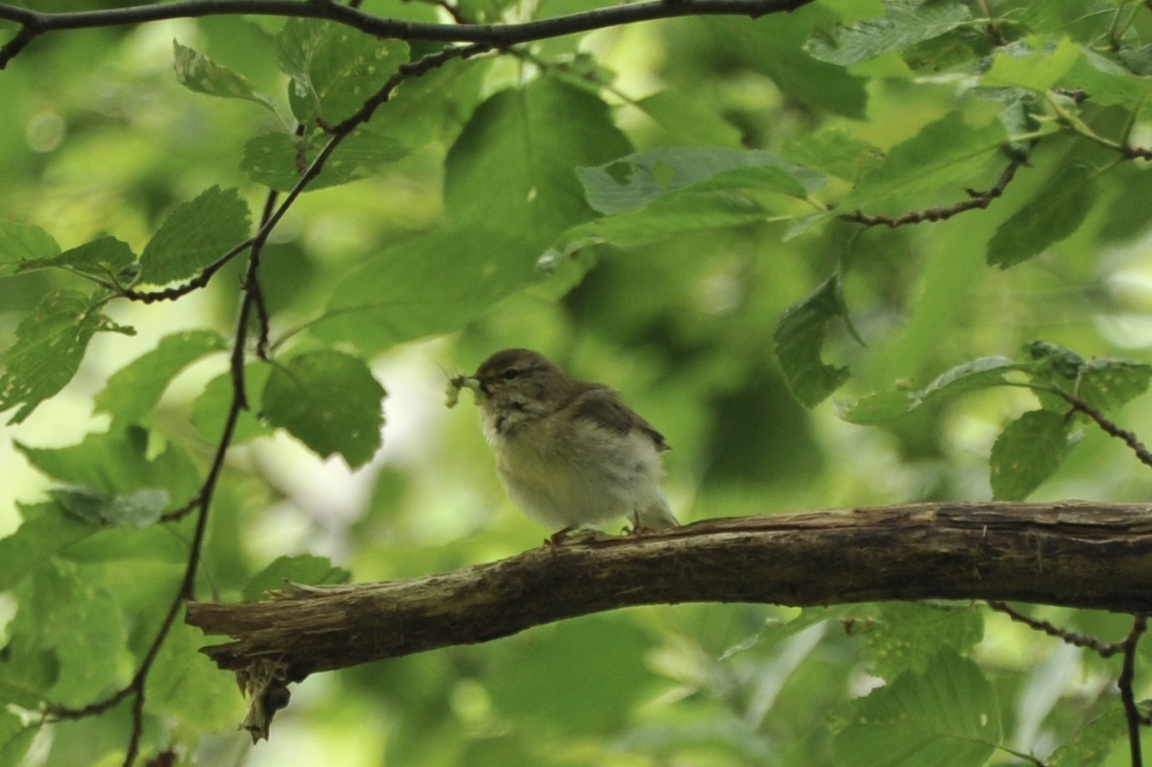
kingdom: Animalia
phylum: Chordata
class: Aves
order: Passeriformes
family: Phylloscopidae
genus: Phylloscopus
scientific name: Phylloscopus trochilus
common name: Willow warbler
